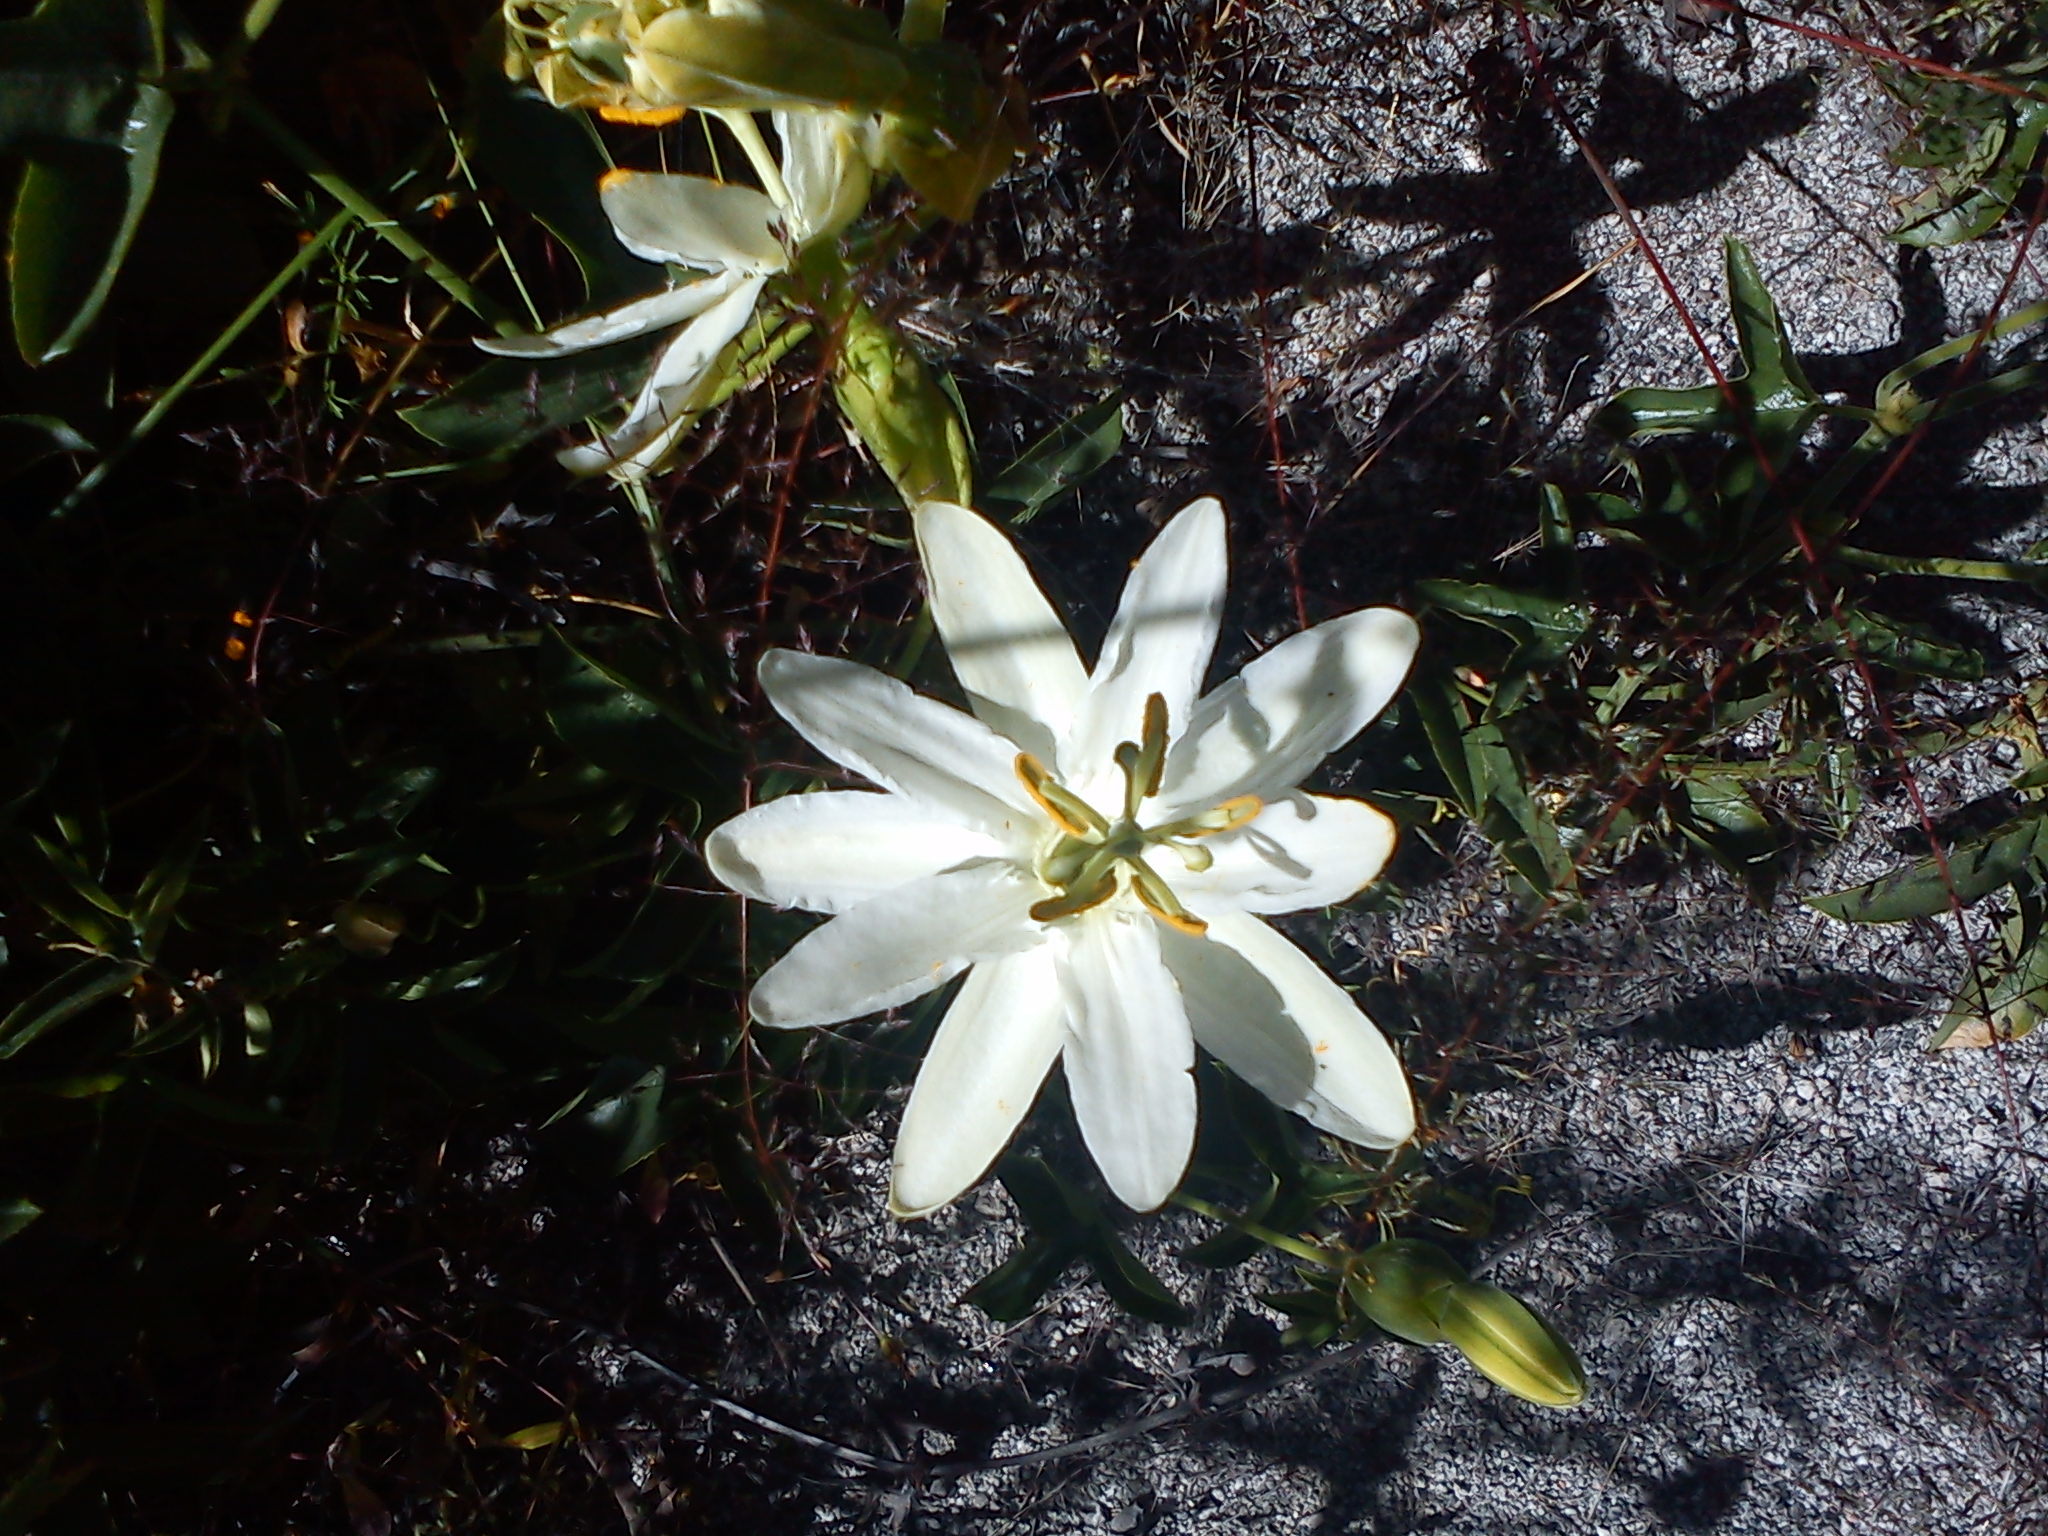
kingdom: Plantae
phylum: Tracheophyta
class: Magnoliopsida
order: Malpighiales
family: Passifloraceae
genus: Passiflora
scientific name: Passiflora peduncularis
